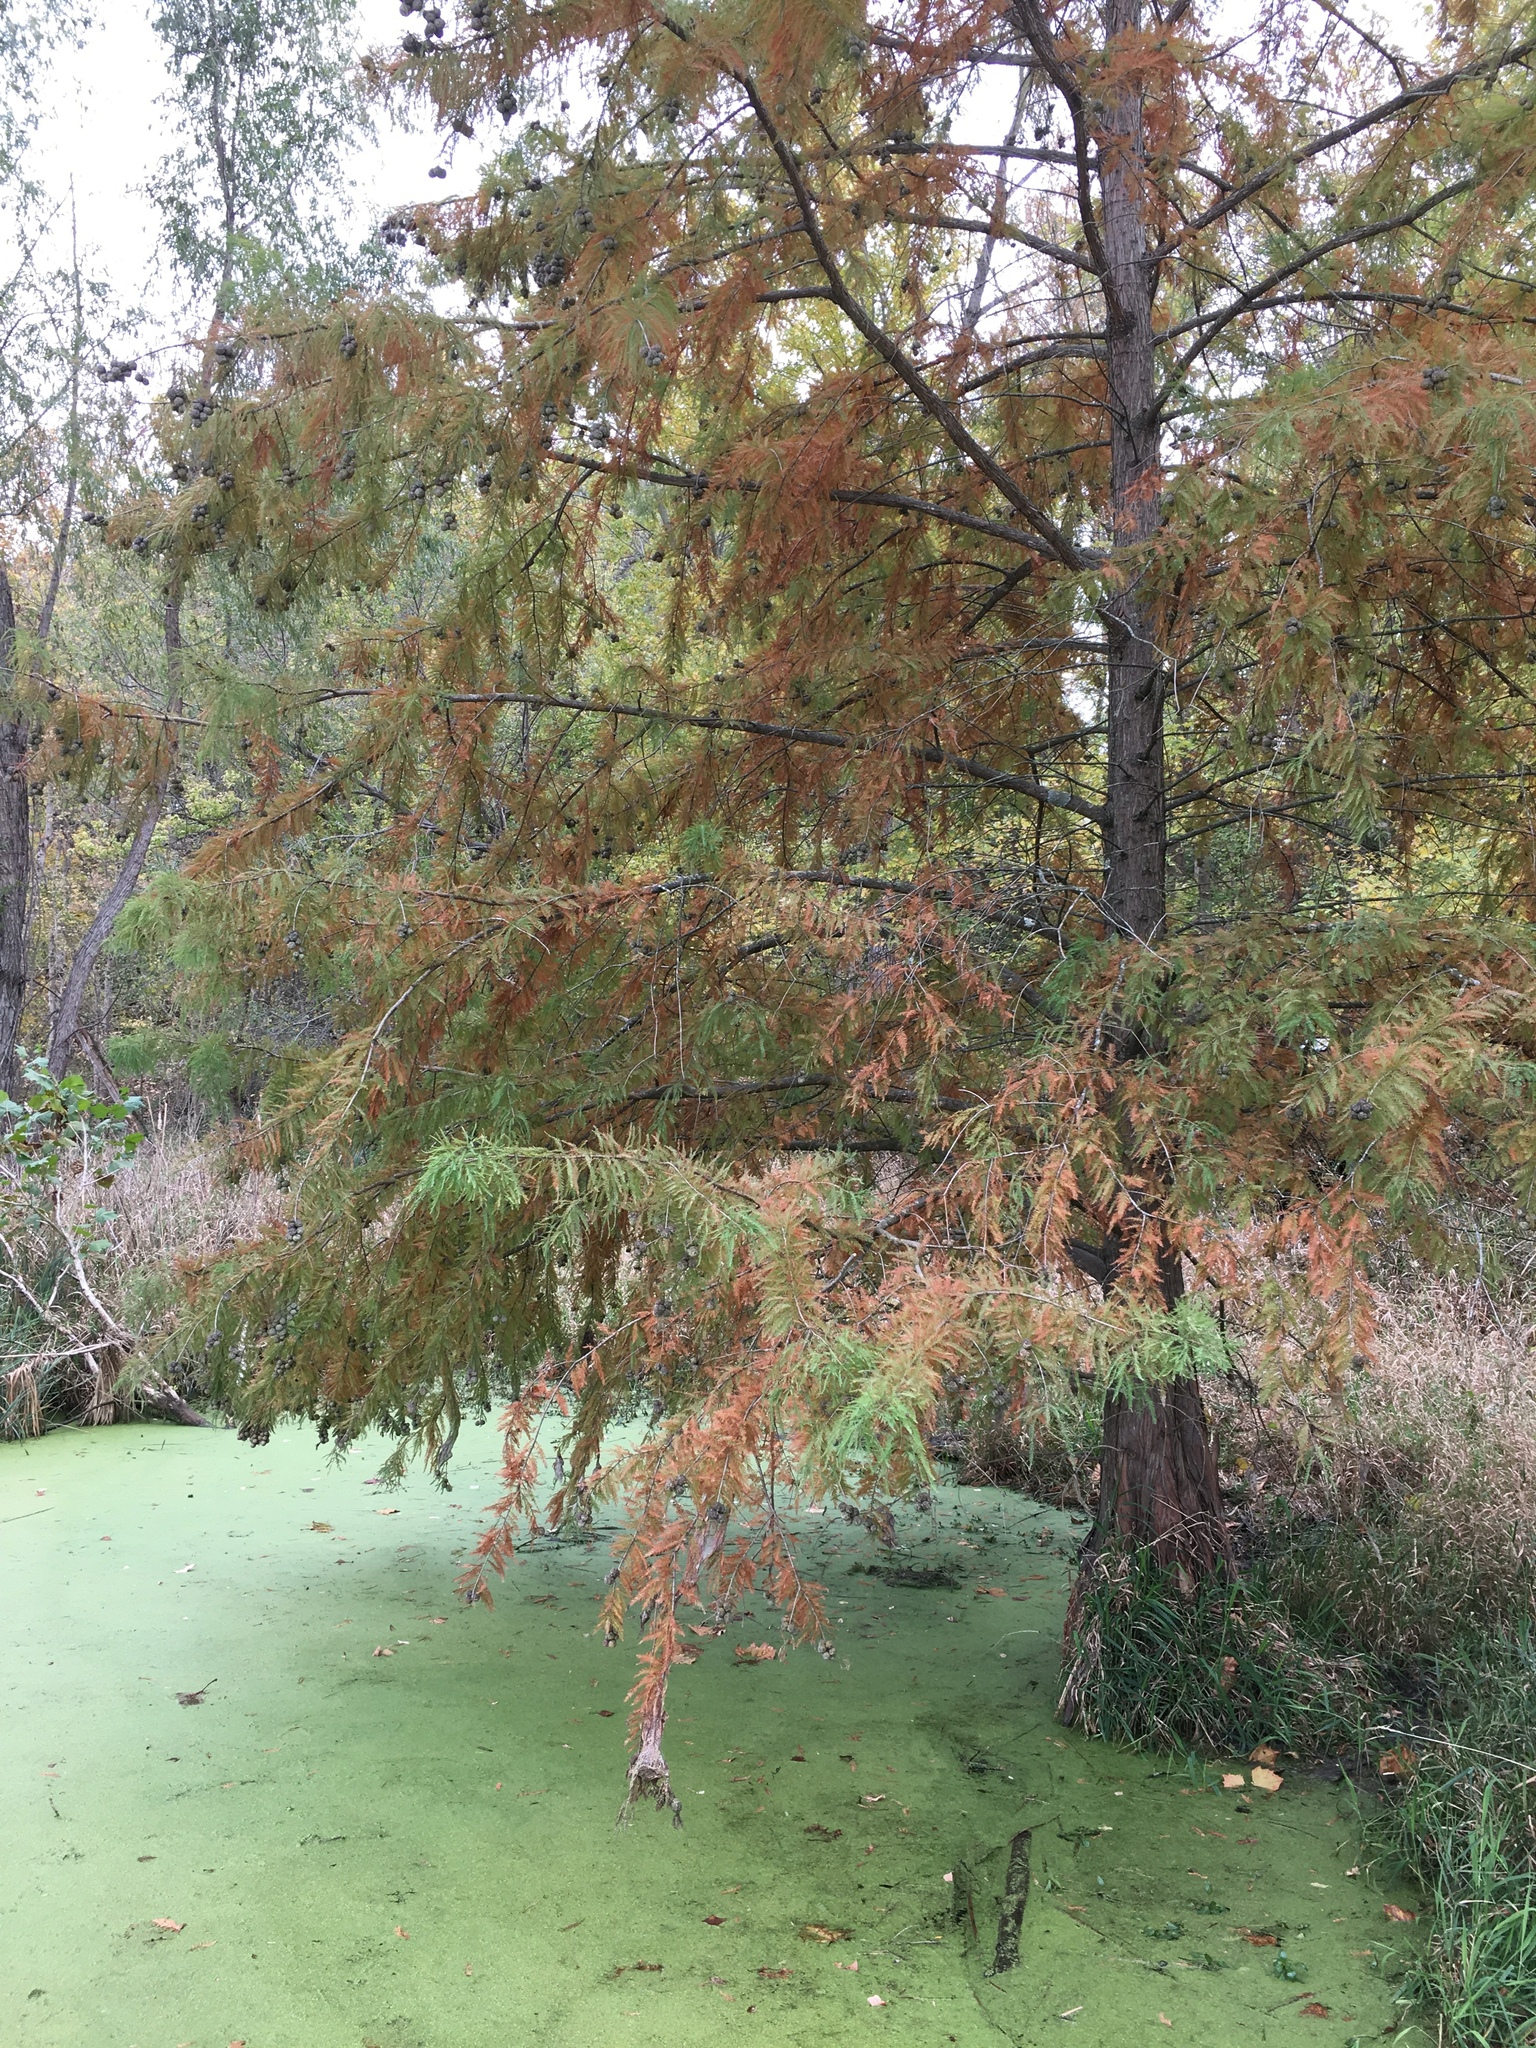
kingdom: Plantae
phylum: Tracheophyta
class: Pinopsida
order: Pinales
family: Cupressaceae
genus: Taxodium
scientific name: Taxodium distichum
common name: Bald cypress
